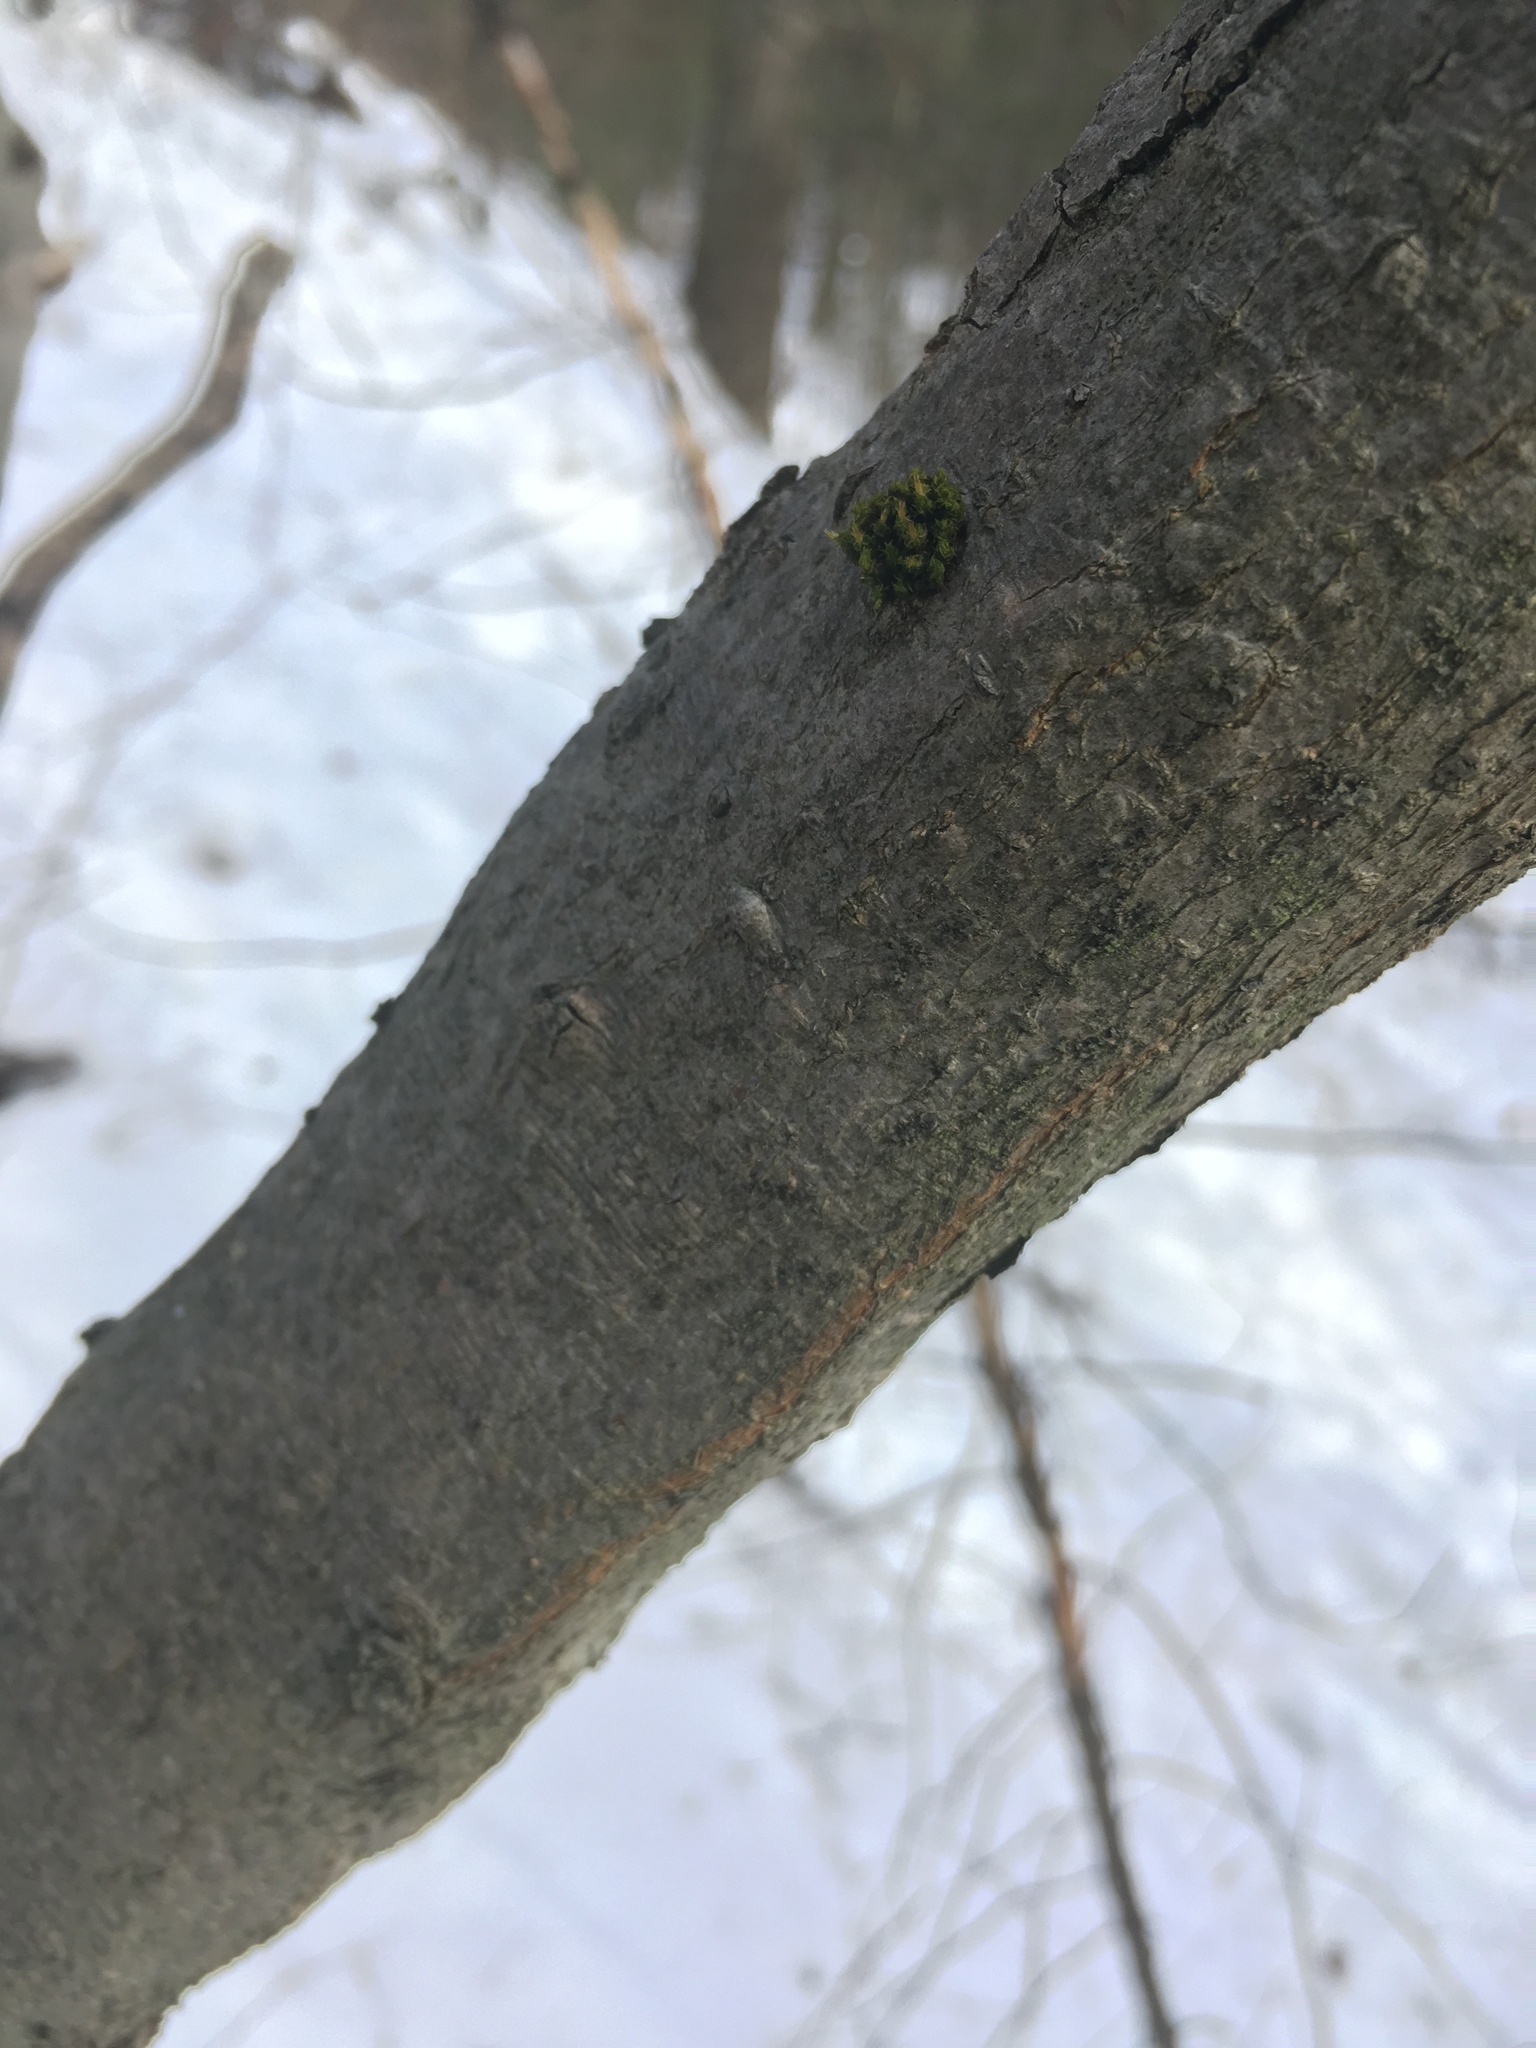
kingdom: Plantae
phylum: Tracheophyta
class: Magnoliopsida
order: Rosales
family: Cannabaceae
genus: Celtis
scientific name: Celtis tenuifolia
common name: Georgia hackberry
